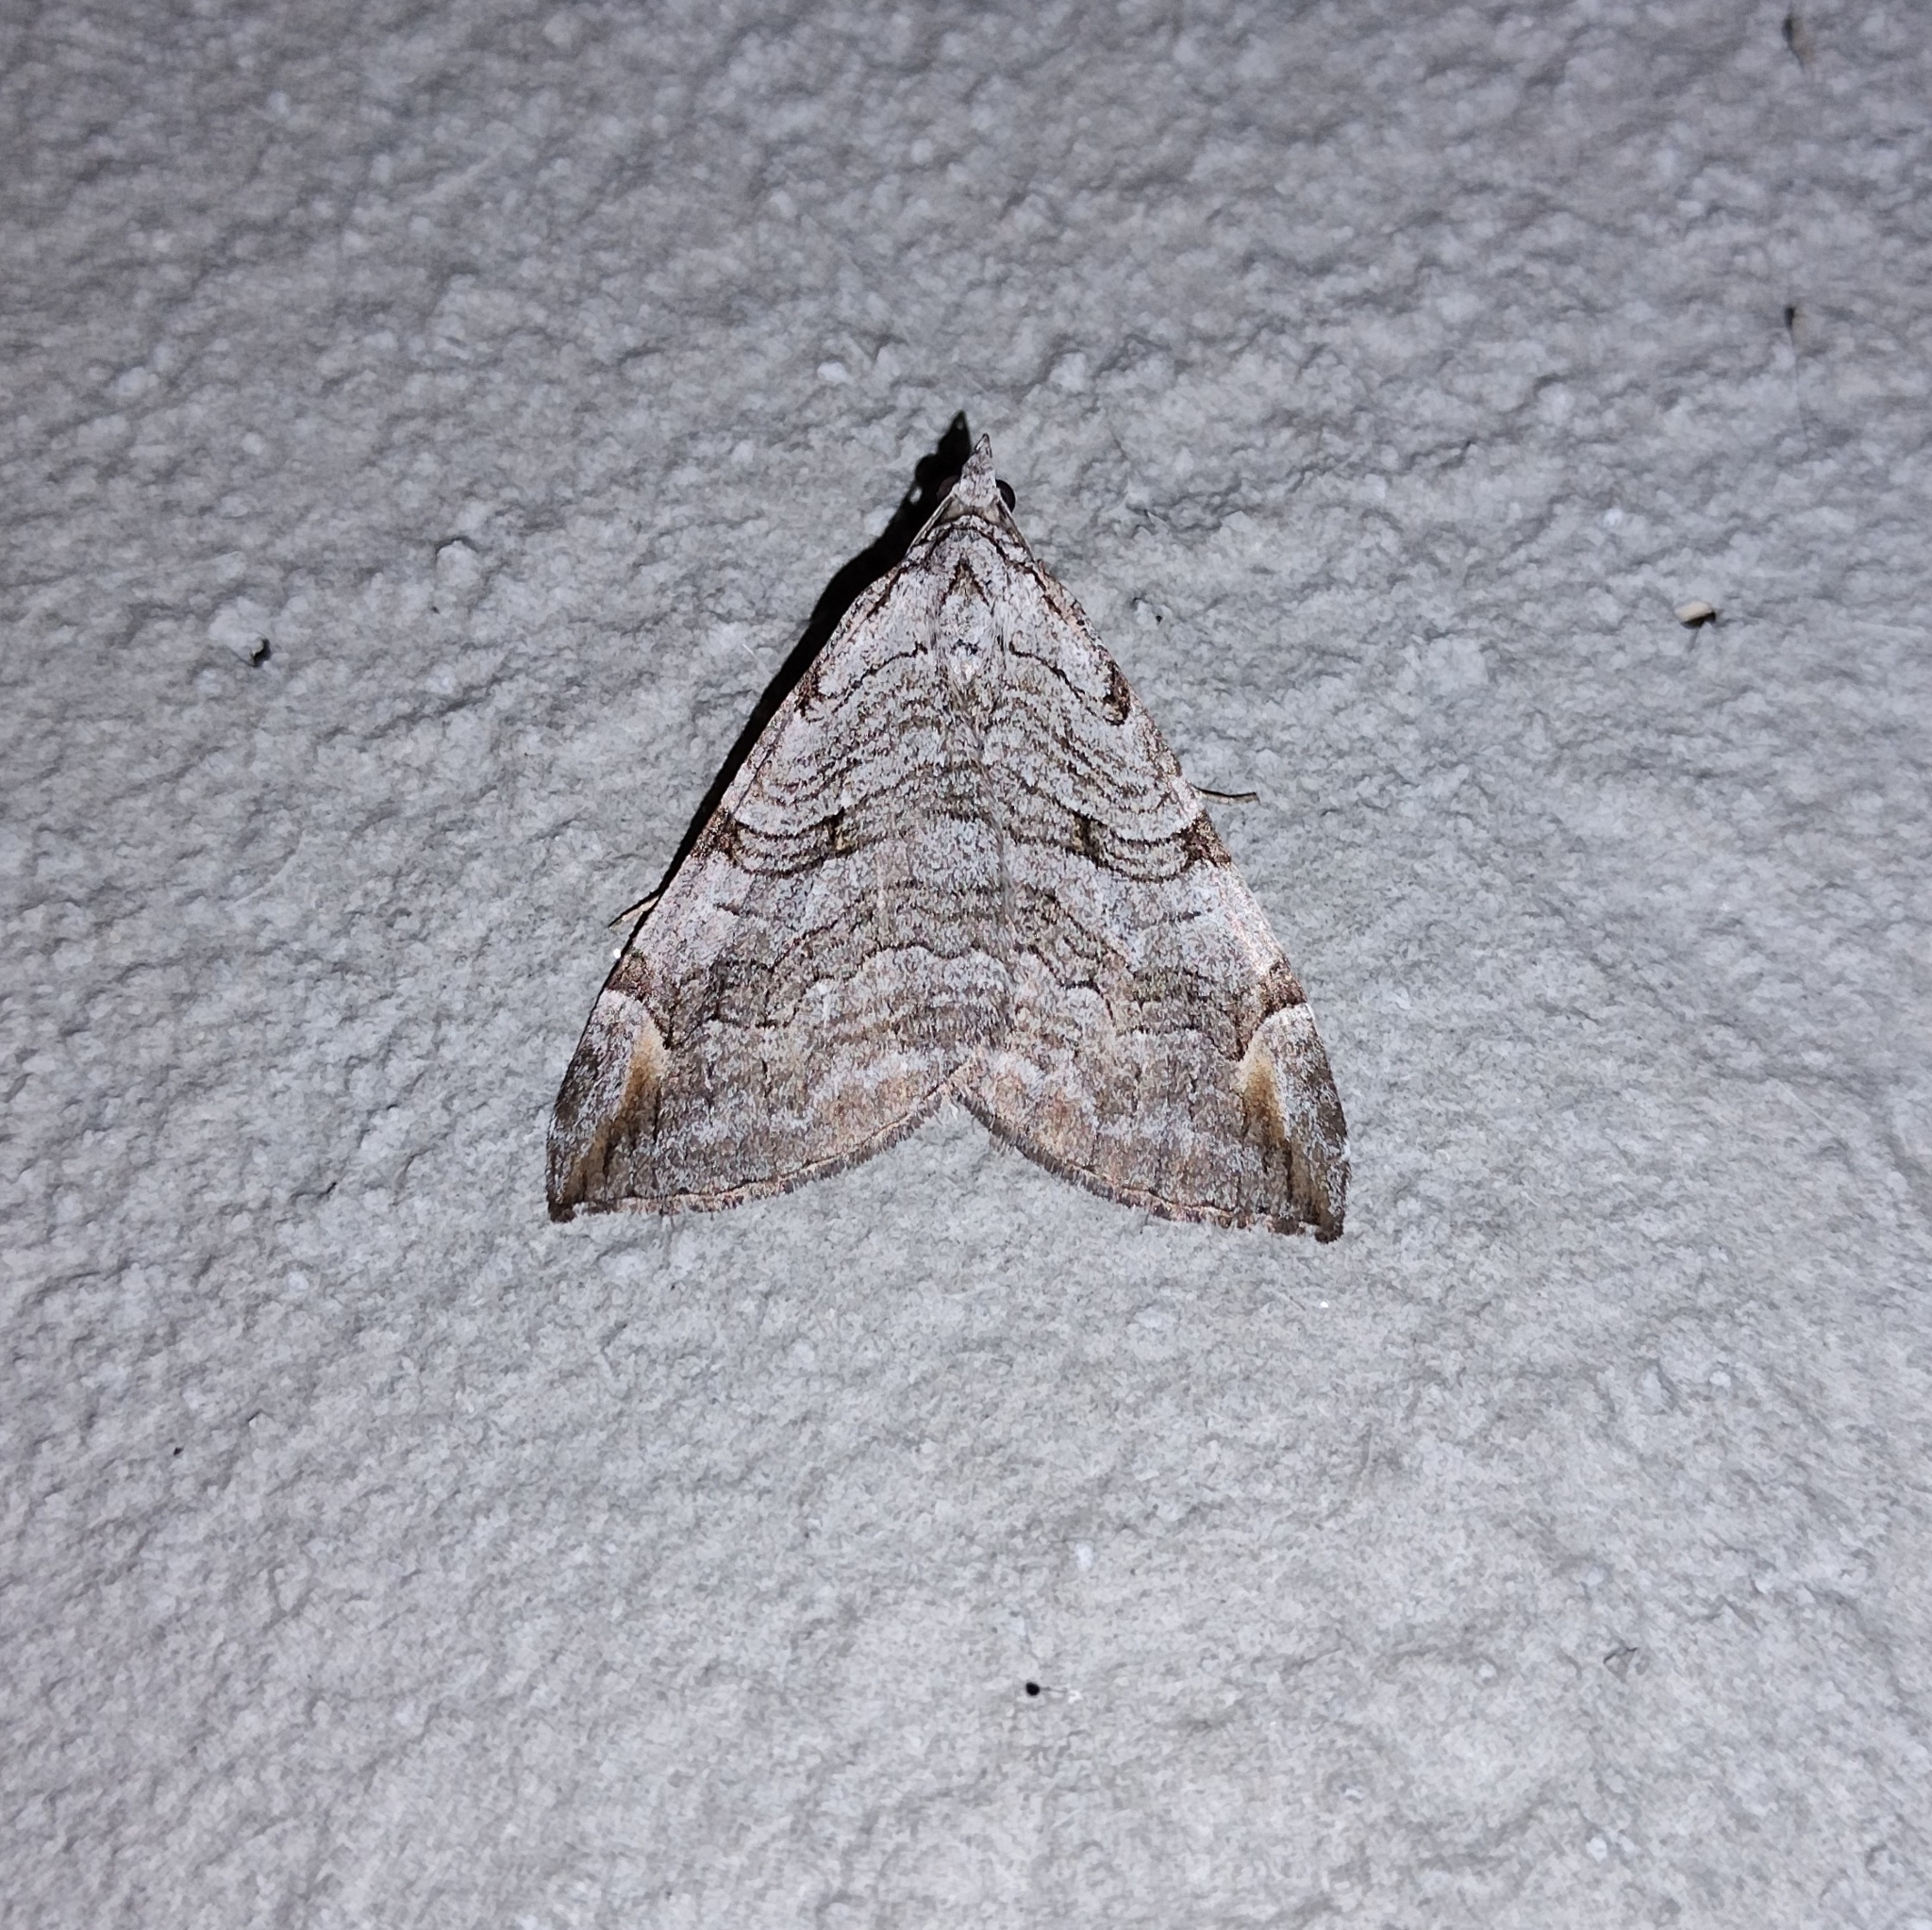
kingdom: Animalia
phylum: Arthropoda
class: Insecta
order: Lepidoptera
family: Geometridae
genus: Aplocera
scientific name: Aplocera plagiata
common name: Treble-bar
